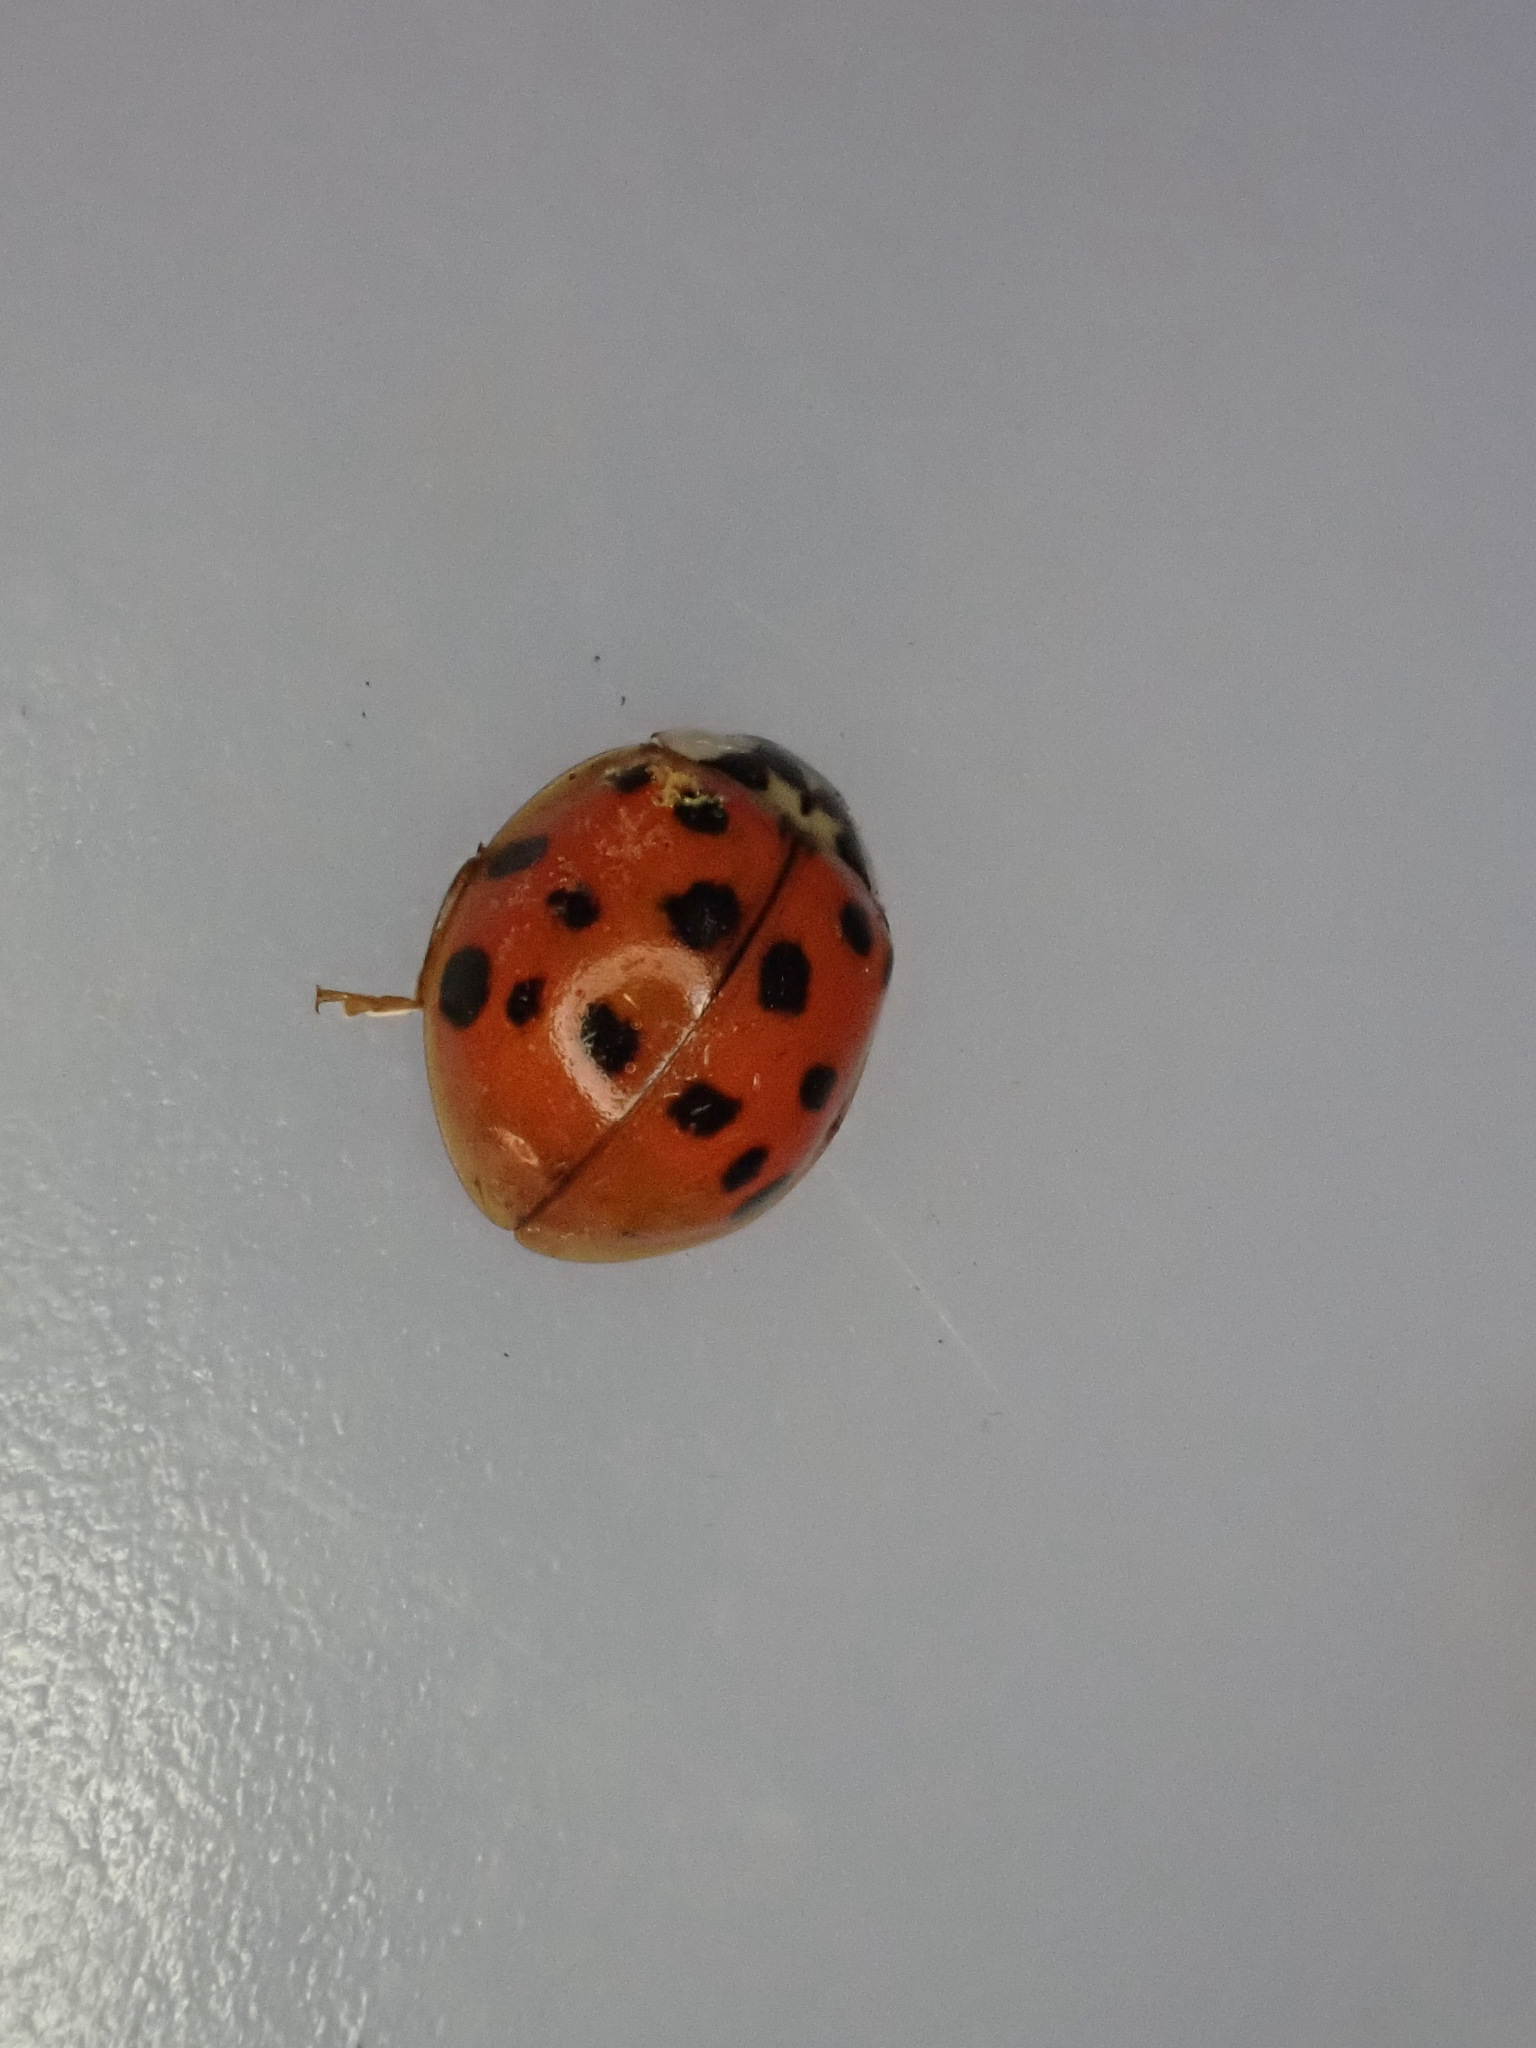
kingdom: Animalia
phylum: Arthropoda
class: Insecta
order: Coleoptera
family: Coccinellidae
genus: Harmonia
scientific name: Harmonia axyridis
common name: Harlequin ladybird
